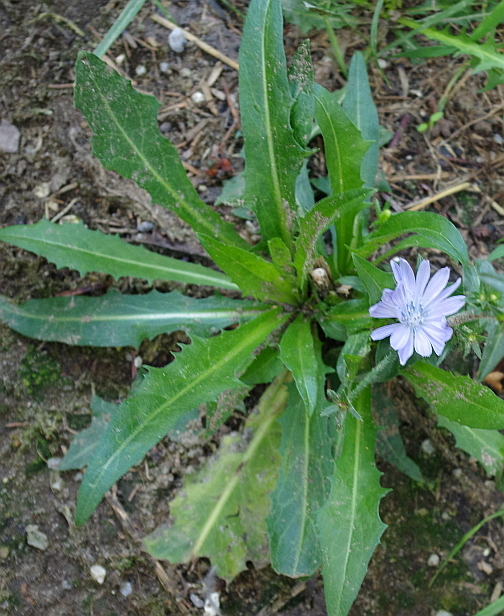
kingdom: Plantae
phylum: Tracheophyta
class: Magnoliopsida
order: Asterales
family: Asteraceae
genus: Cichorium
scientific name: Cichorium intybus
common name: Chicory
